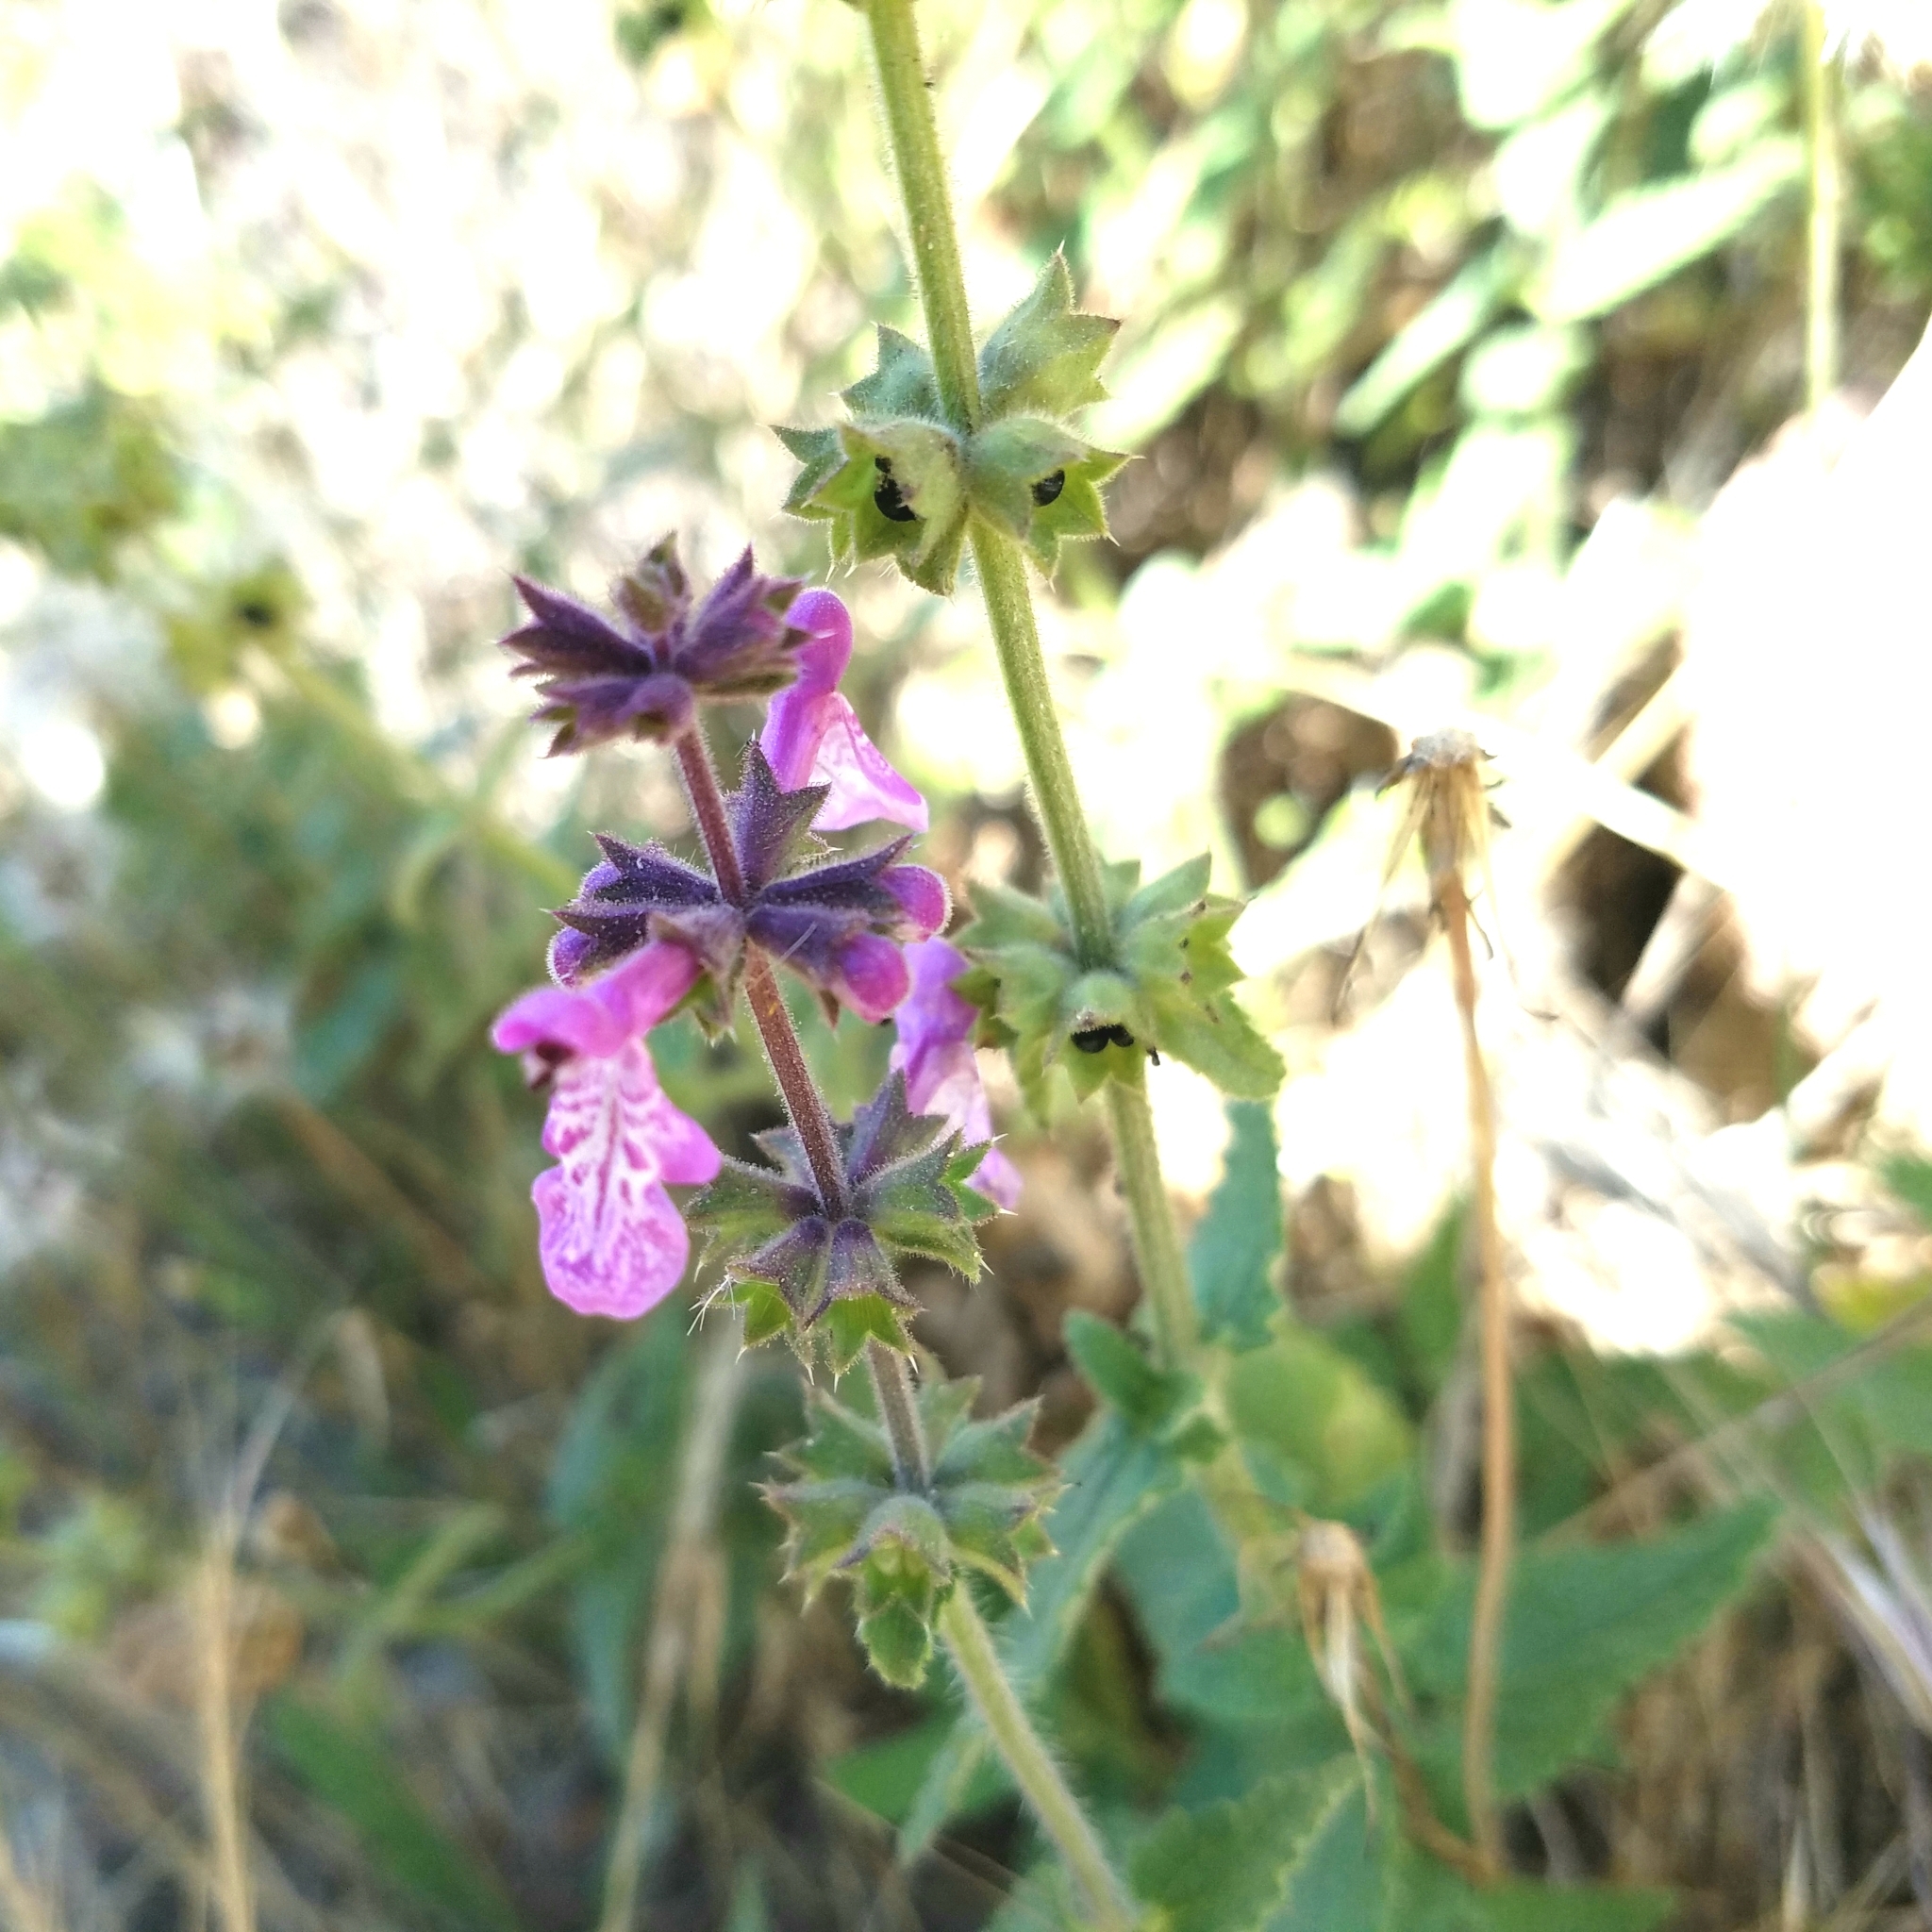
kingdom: Plantae
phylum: Tracheophyta
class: Magnoliopsida
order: Lamiales
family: Lamiaceae
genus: Stachys
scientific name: Stachys bullata
